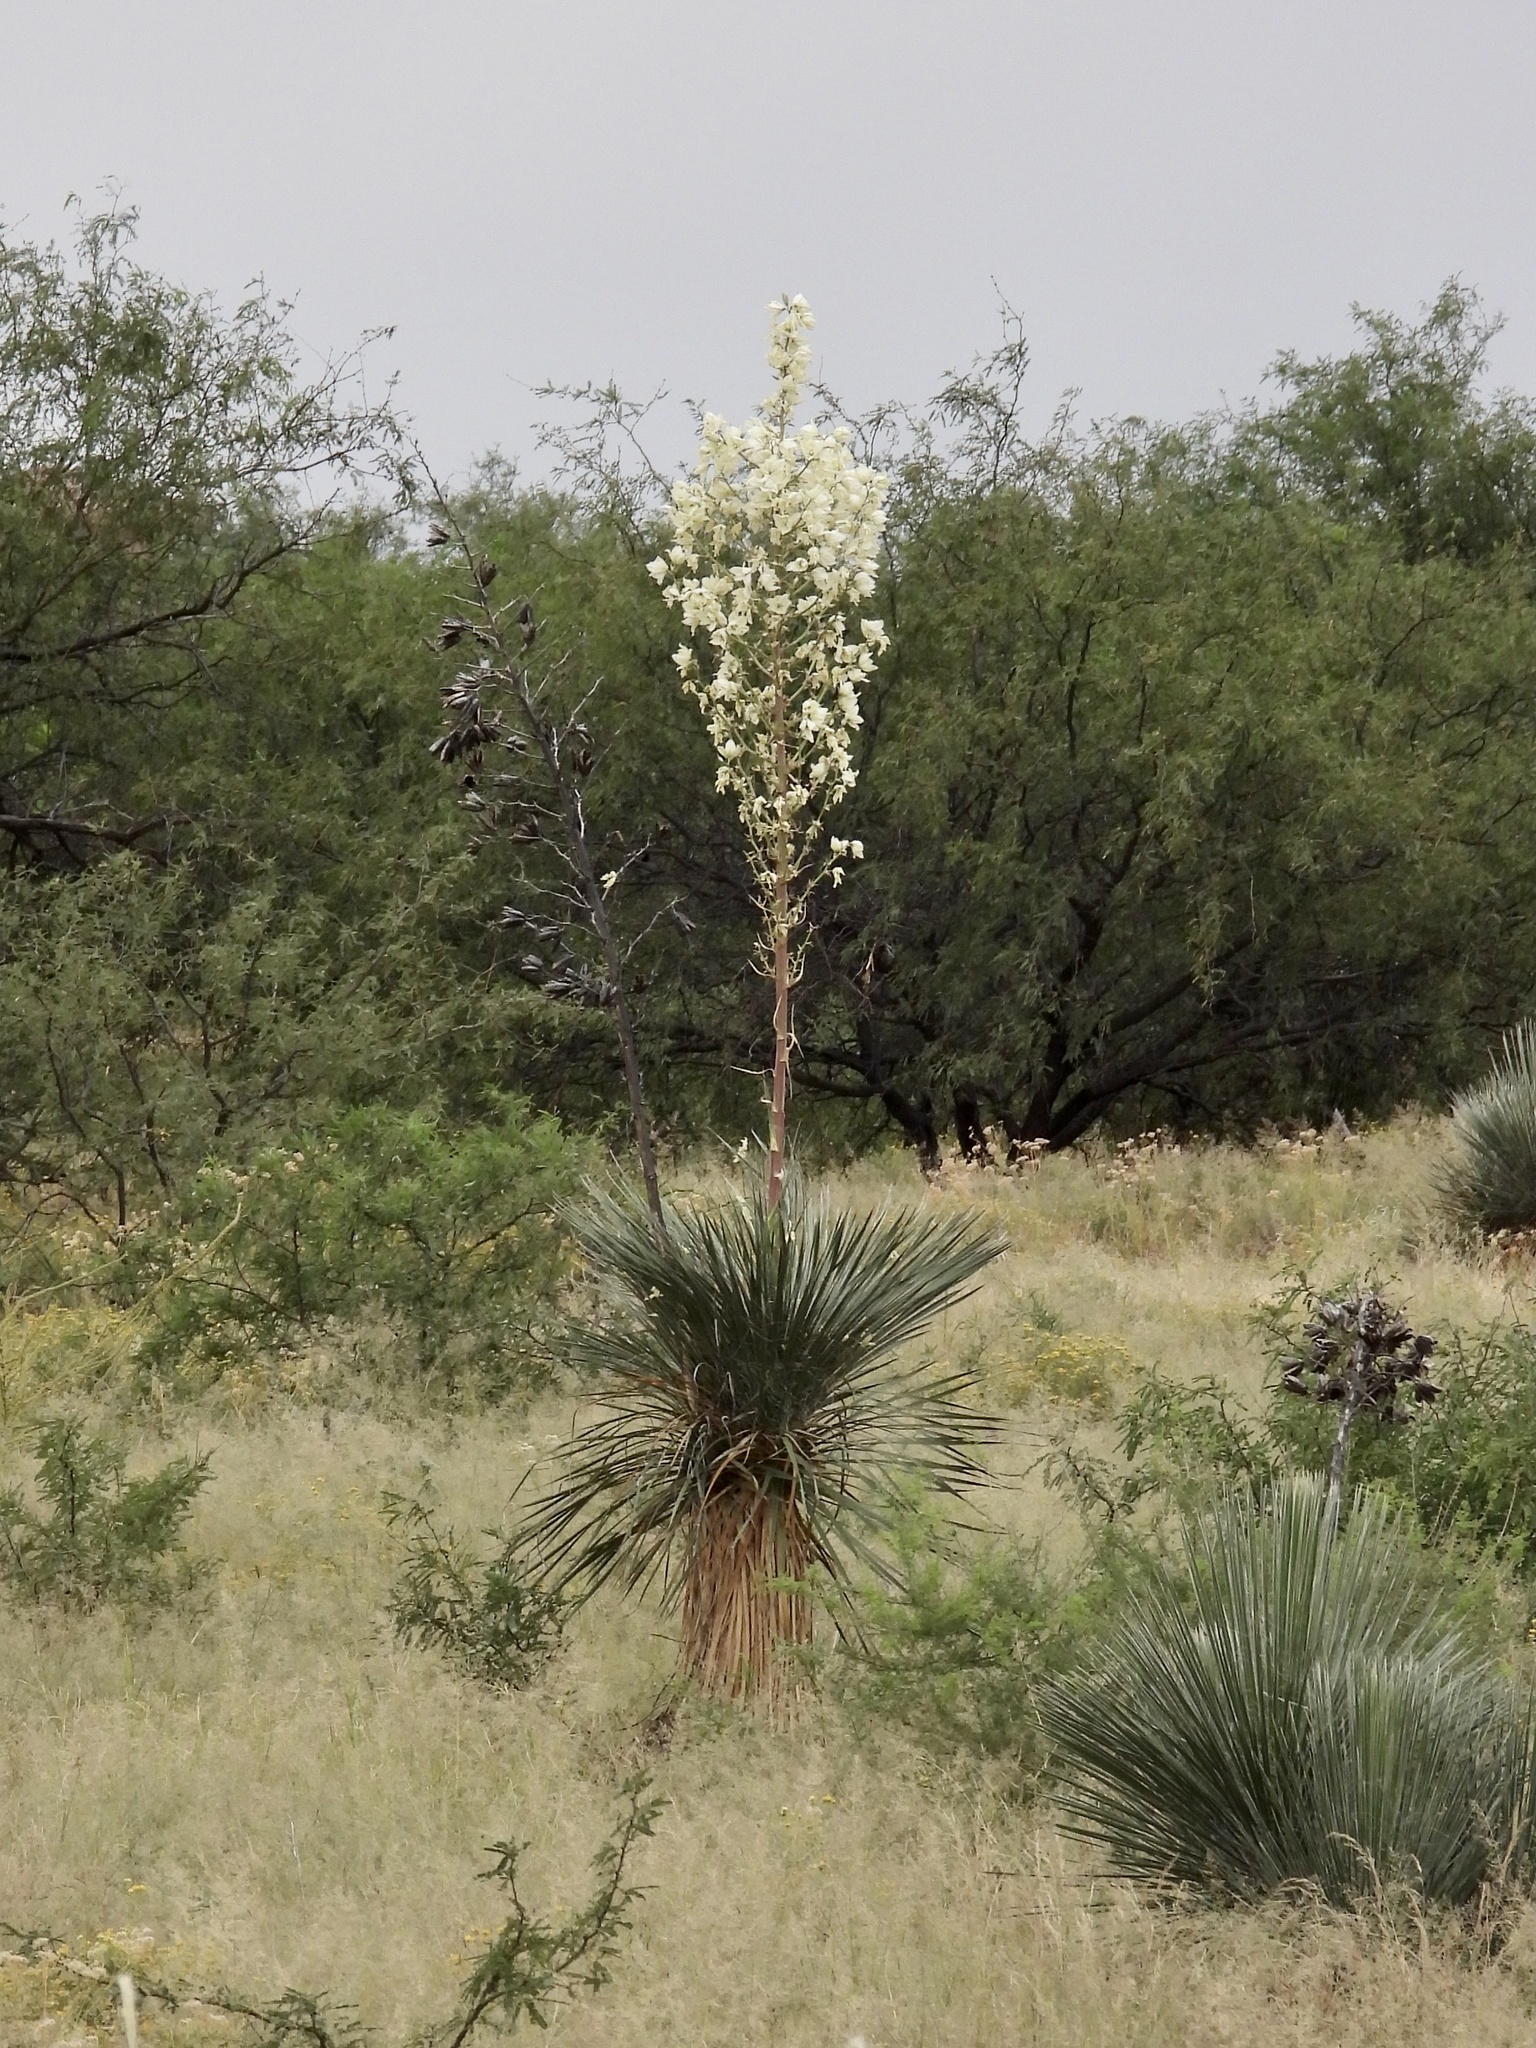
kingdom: Plantae
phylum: Tracheophyta
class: Liliopsida
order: Asparagales
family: Asparagaceae
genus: Yucca
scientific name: Yucca elata
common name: Palmella
